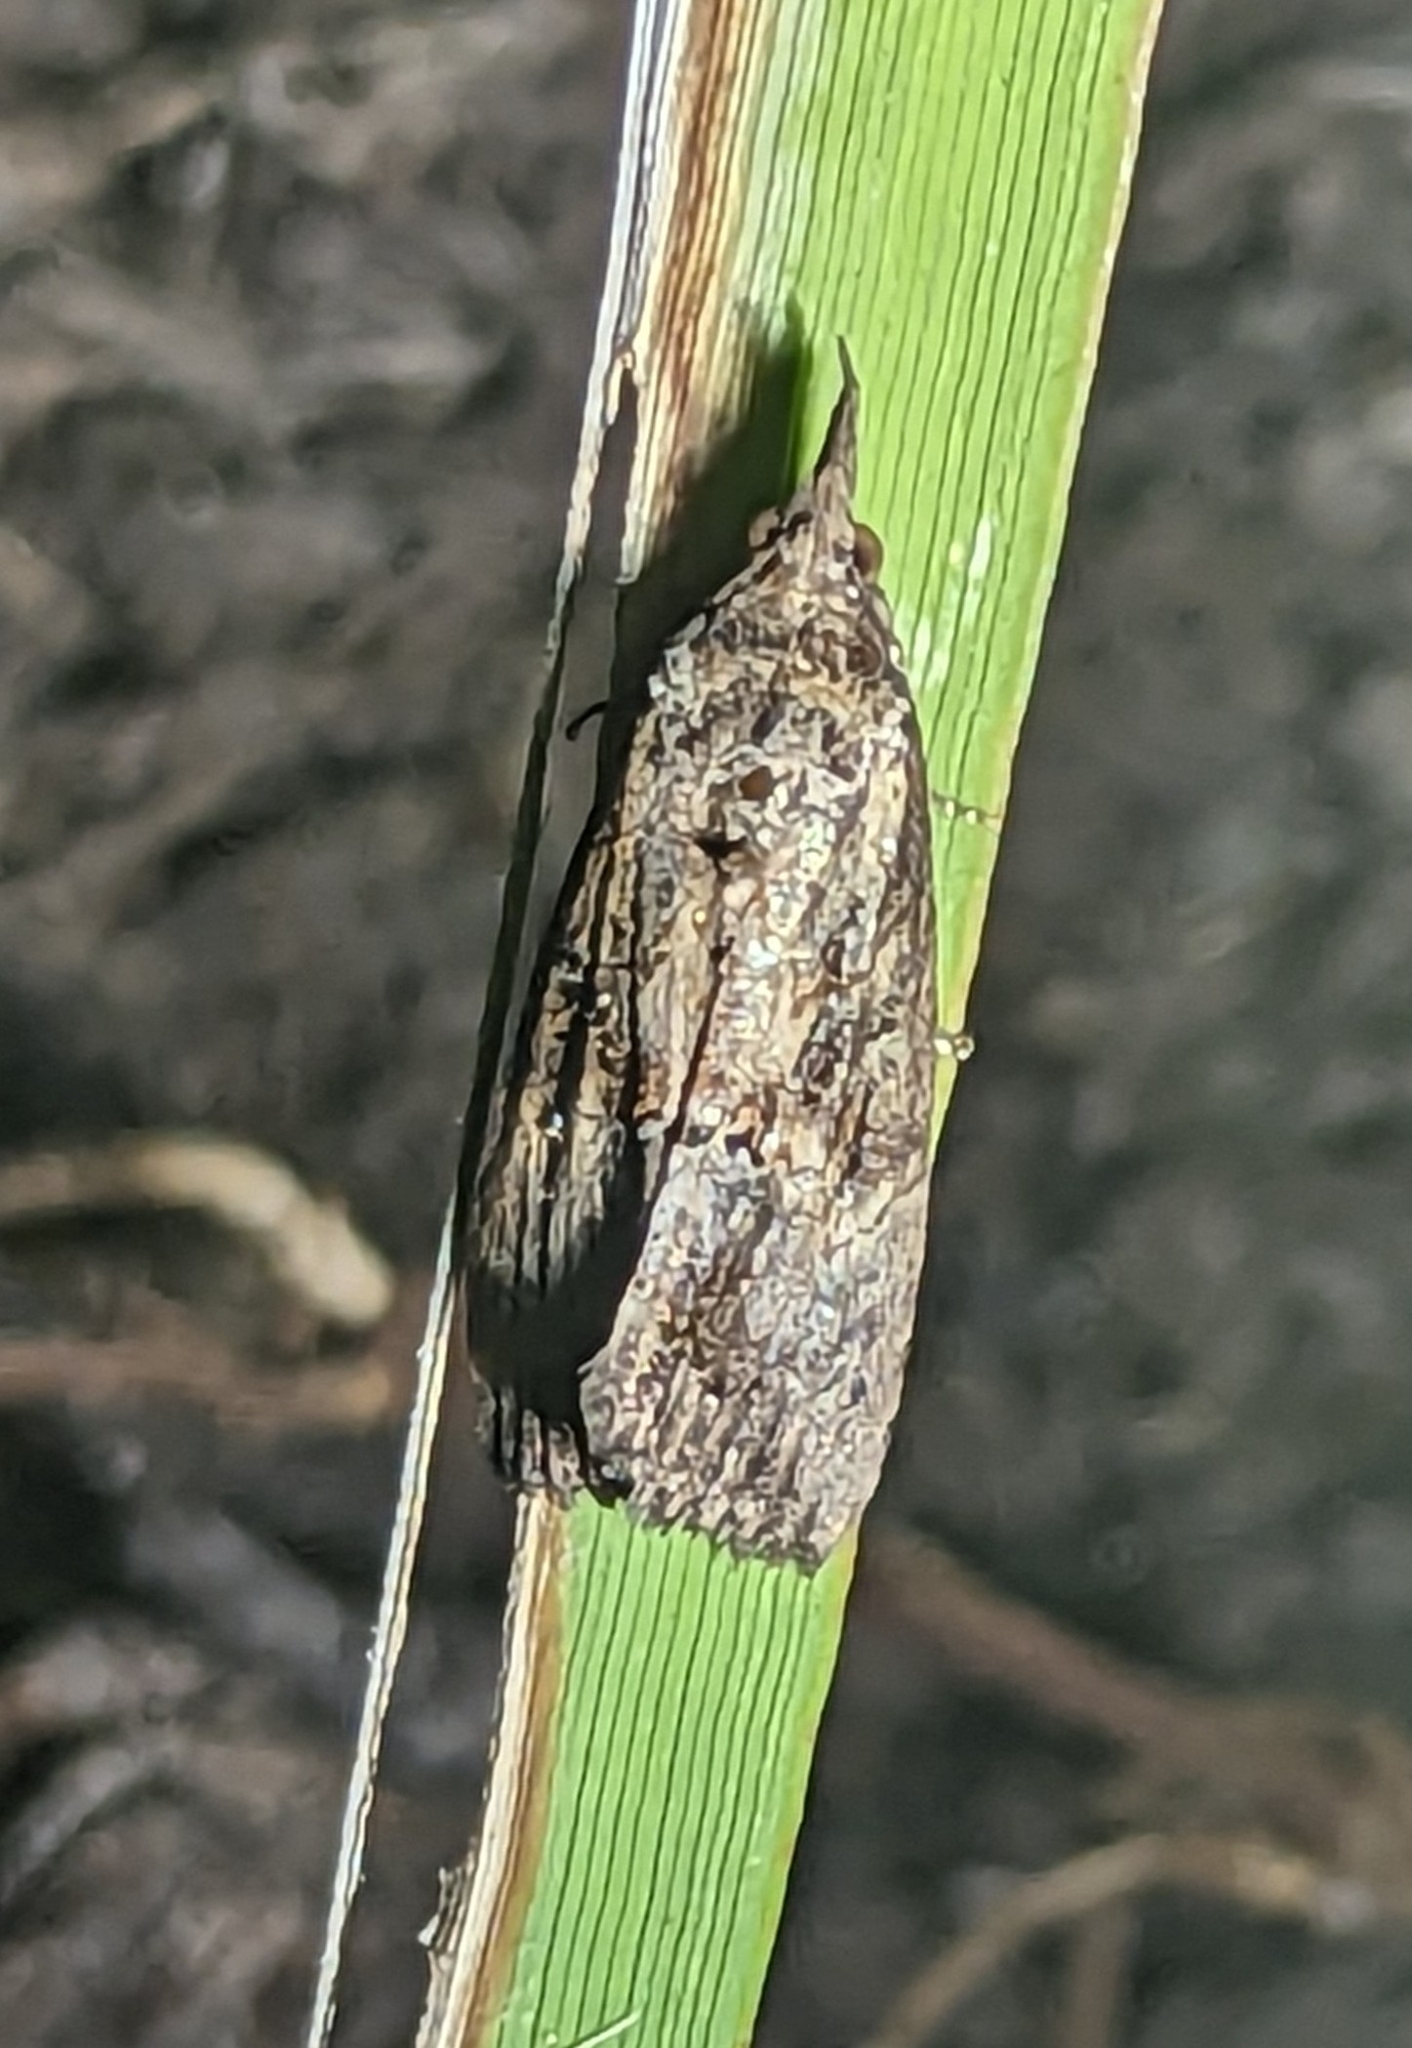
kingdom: Animalia
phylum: Arthropoda
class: Insecta
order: Lepidoptera
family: Erebidae
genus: Hypena
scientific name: Hypena scabra
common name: Green cloverworm
